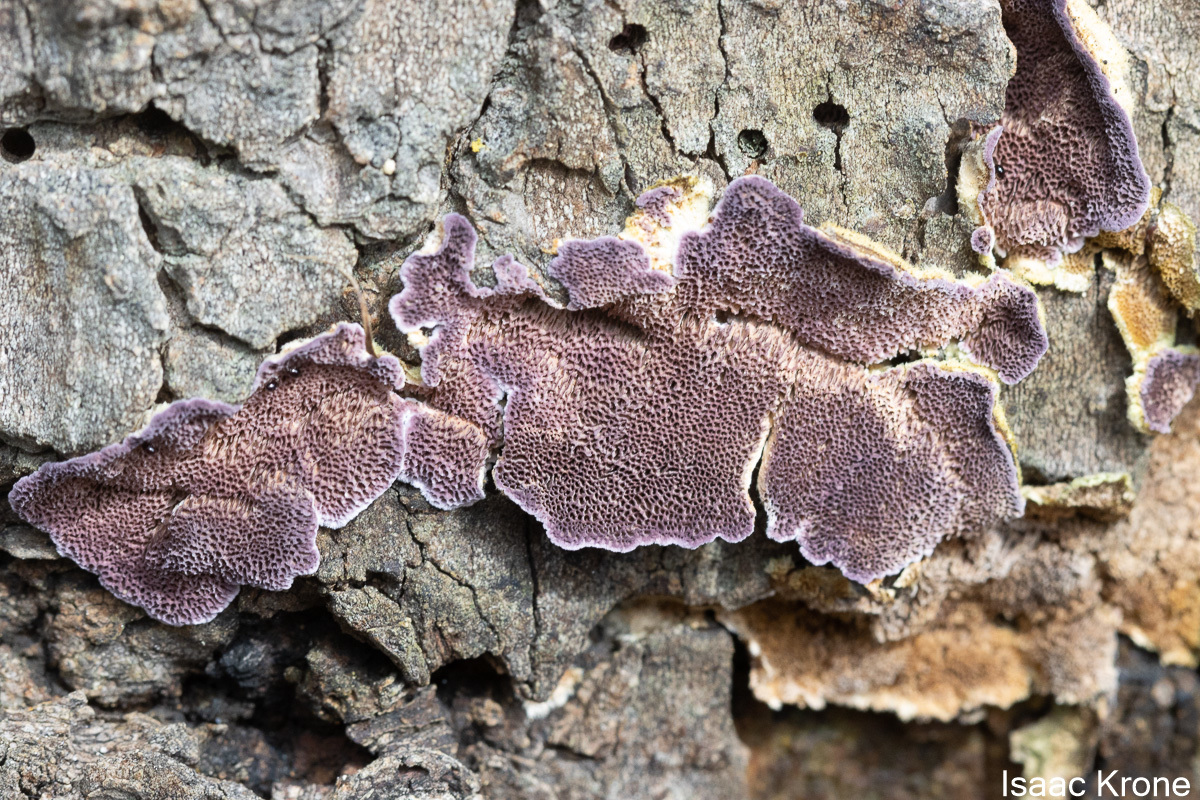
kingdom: Fungi
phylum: Basidiomycota
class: Agaricomycetes
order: Hymenochaetales
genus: Trichaptum
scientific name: Trichaptum biforme
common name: Violet-toothed polypore
